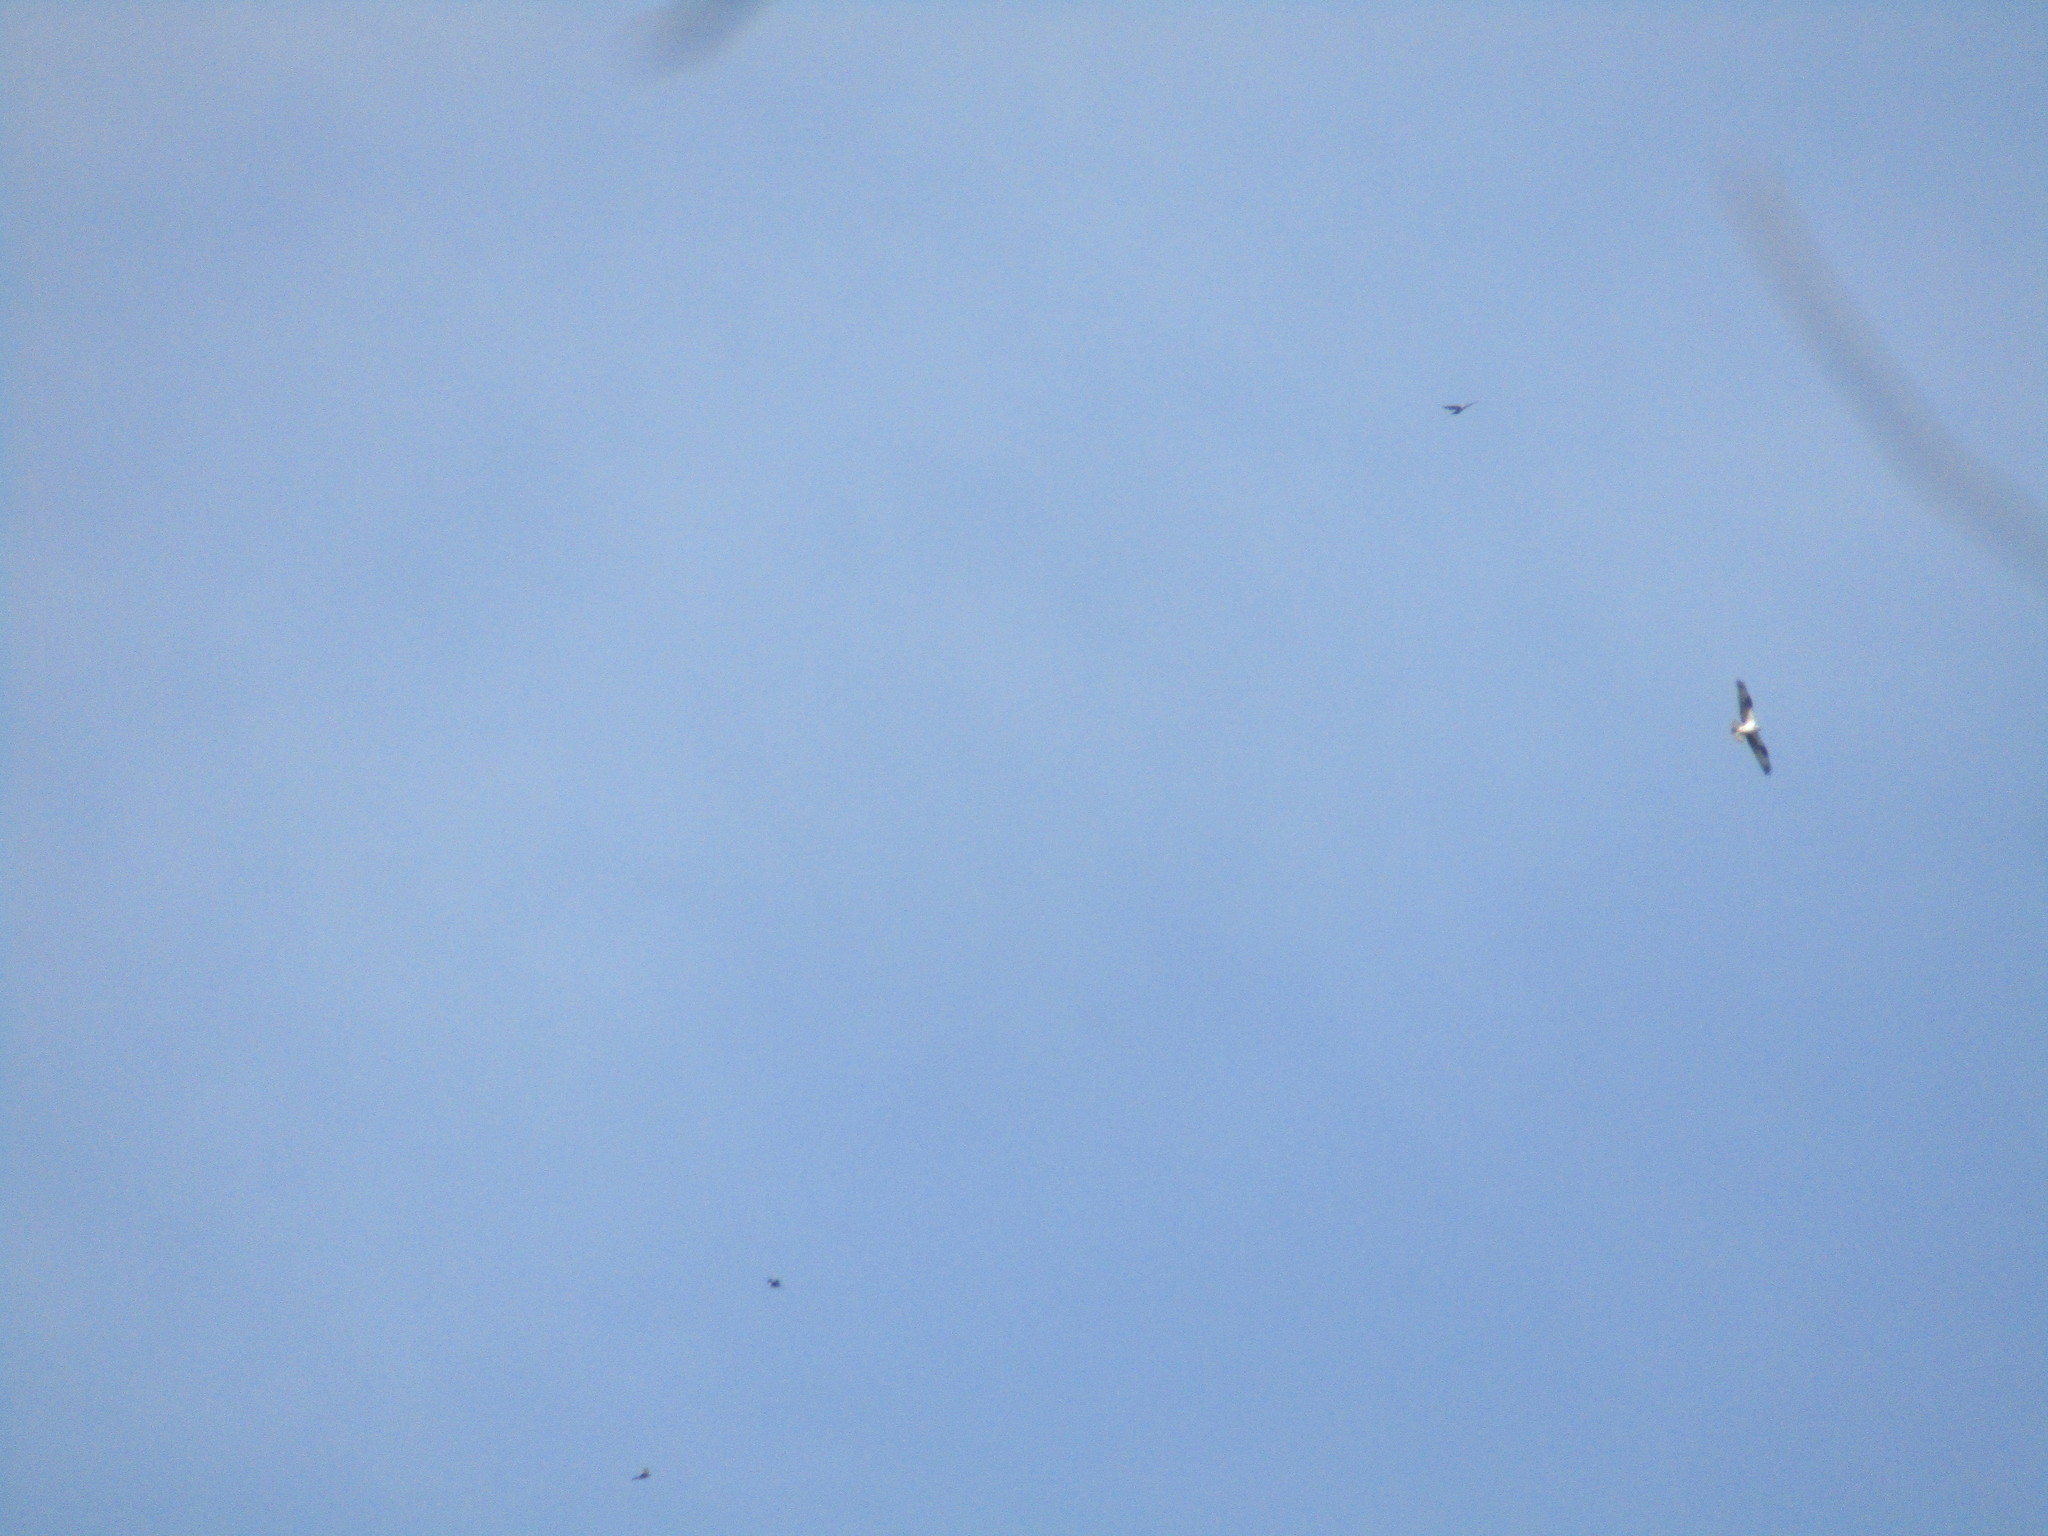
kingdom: Animalia
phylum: Chordata
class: Aves
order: Accipitriformes
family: Pandionidae
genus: Pandion
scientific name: Pandion haliaetus
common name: Osprey
